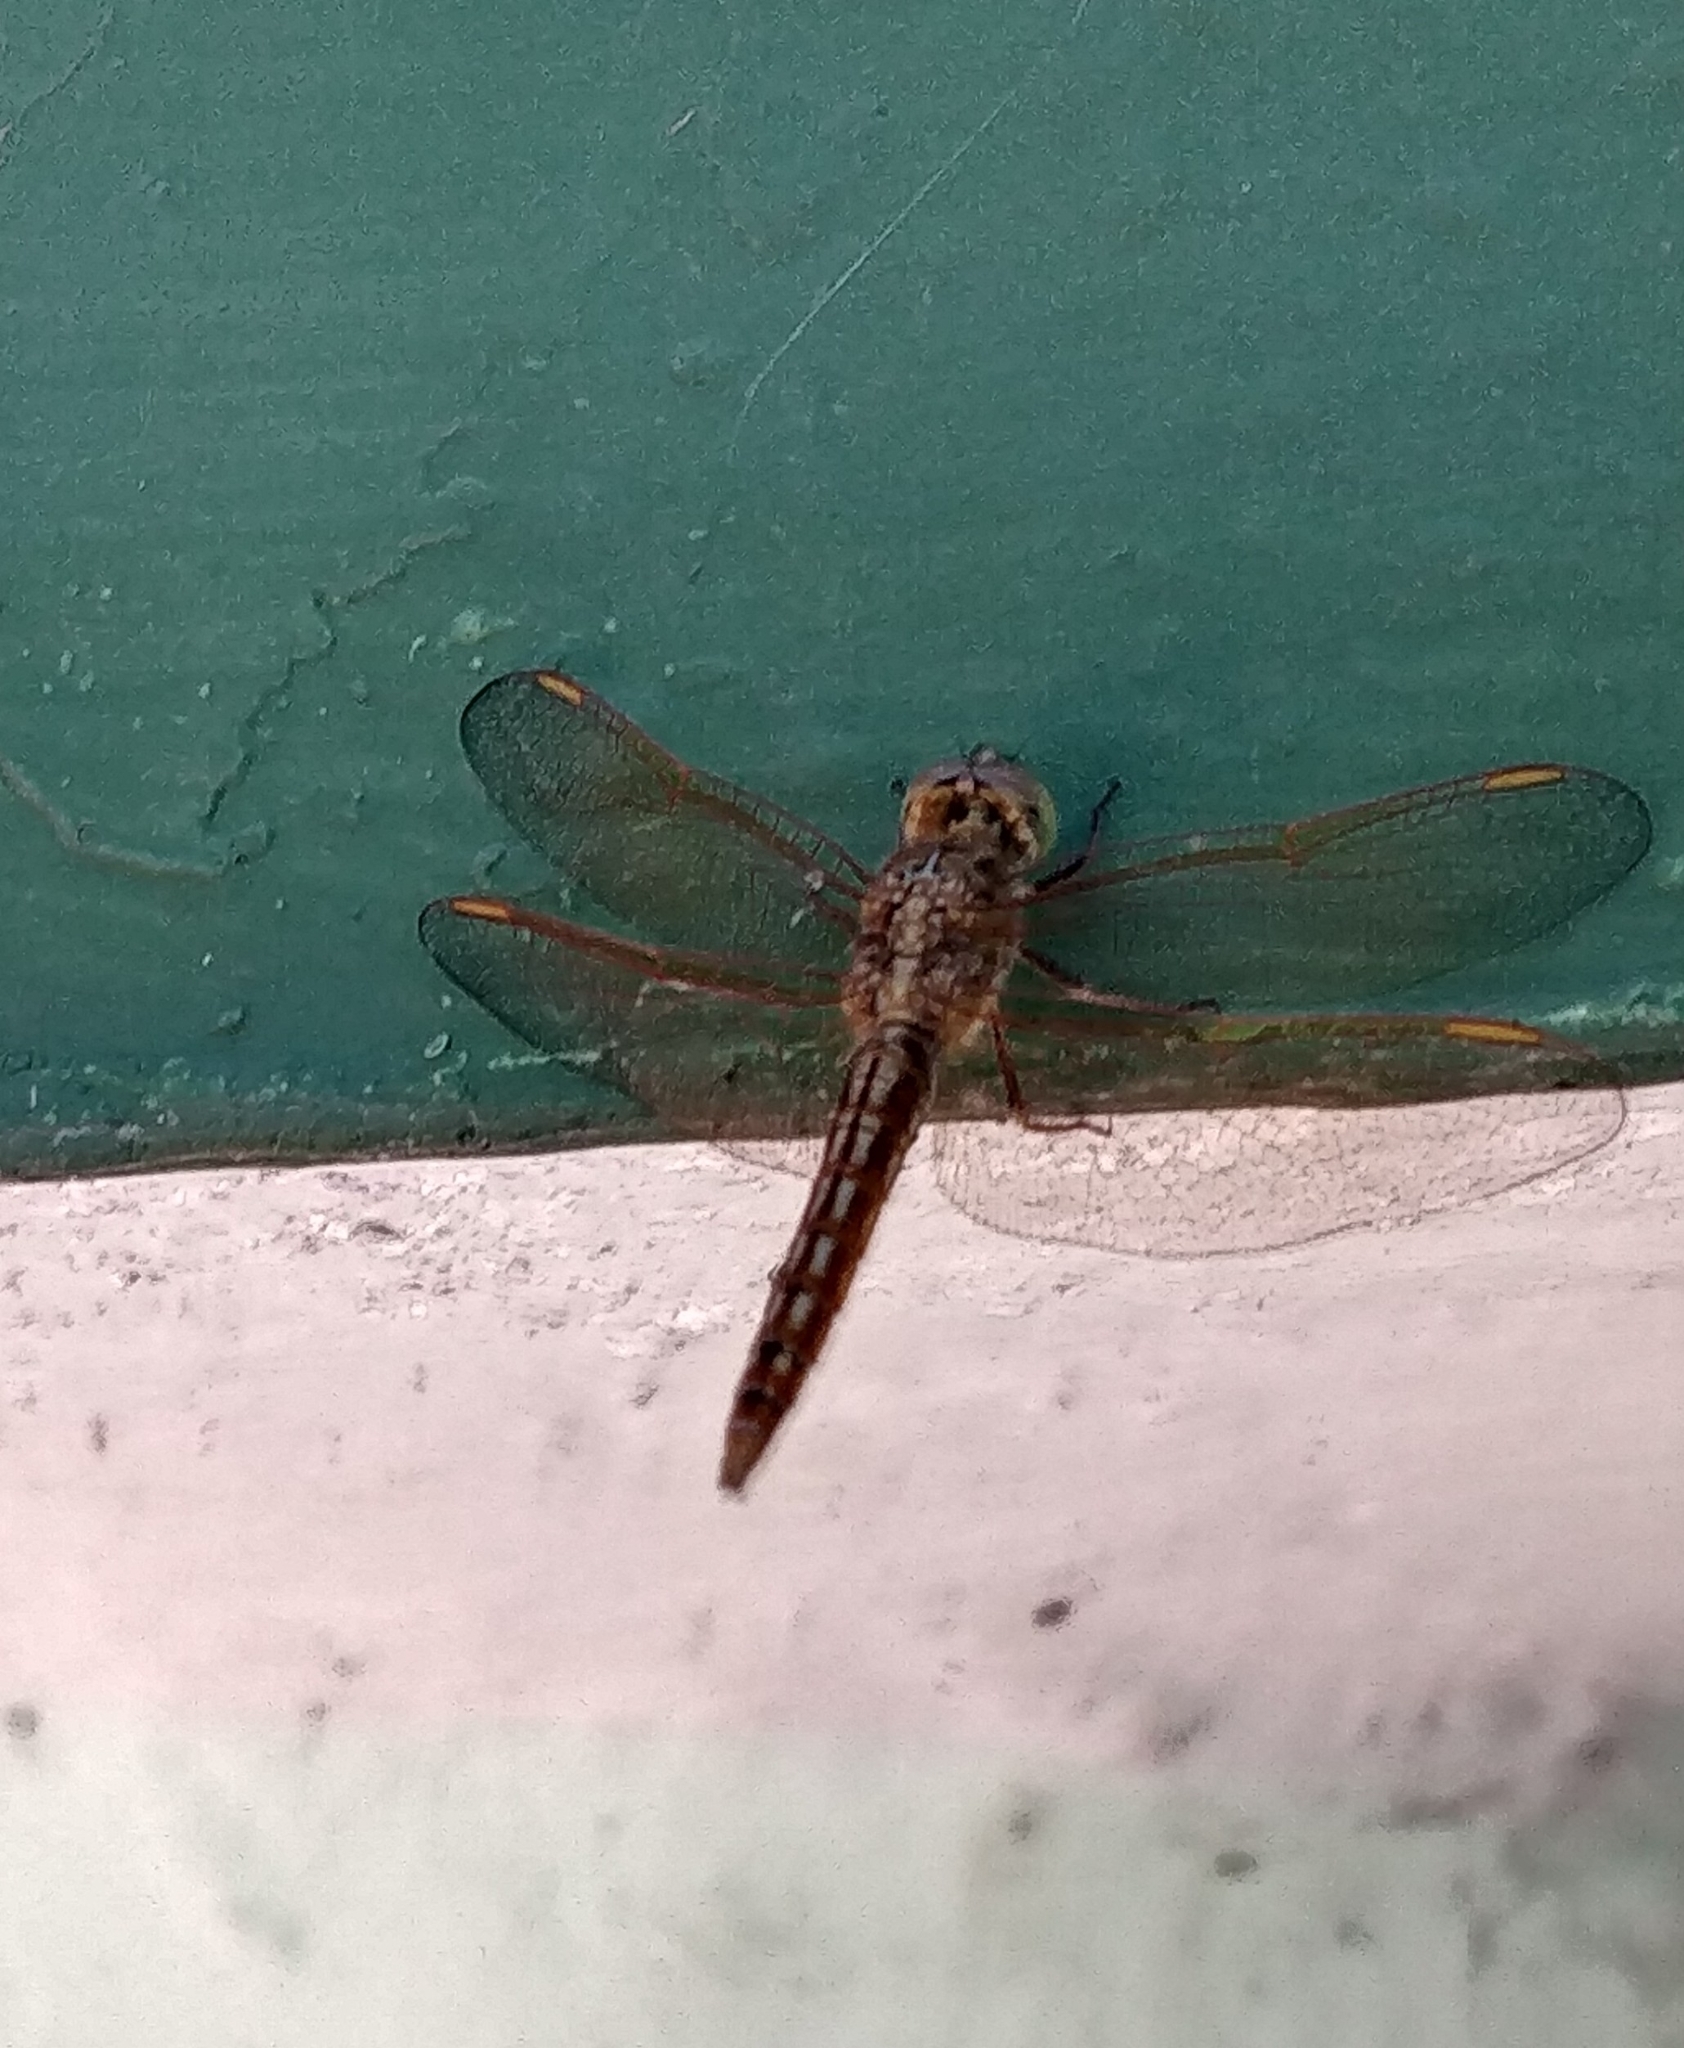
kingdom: Animalia
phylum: Arthropoda
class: Insecta
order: Odonata
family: Libellulidae
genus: Brachythemis
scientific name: Brachythemis contaminata
